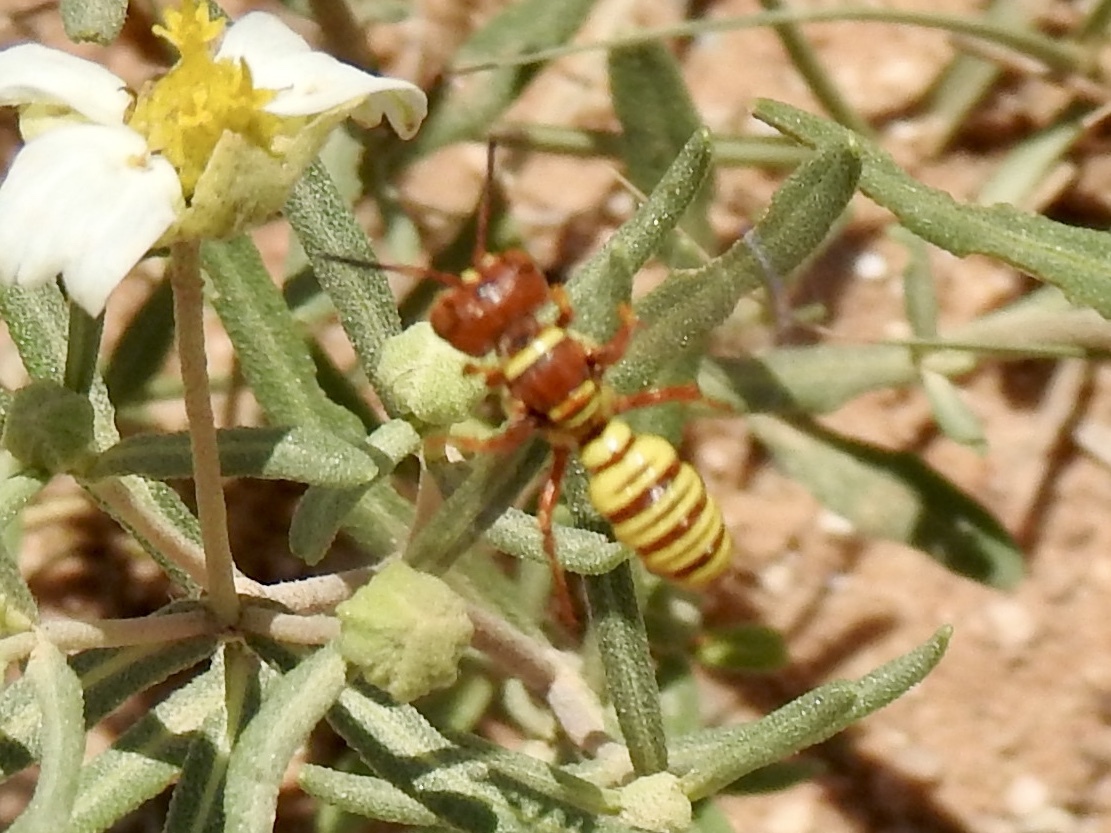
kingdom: Animalia
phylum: Arthropoda
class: Insecta
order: Hymenoptera
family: Crabronidae
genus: Eucerceris
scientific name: Eucerceris canaliculata
